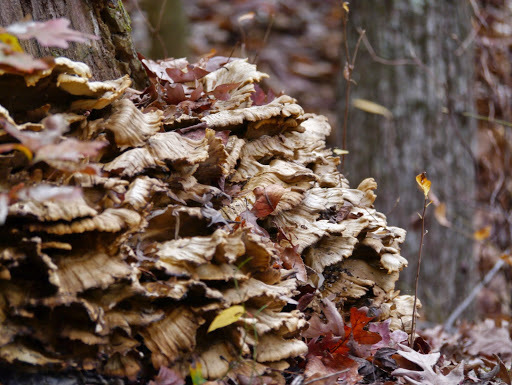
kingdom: Fungi
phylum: Basidiomycota
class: Agaricomycetes
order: Polyporales
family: Laetiporaceae
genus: Laetiporus
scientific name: Laetiporus sulphureus
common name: Chicken of the woods
